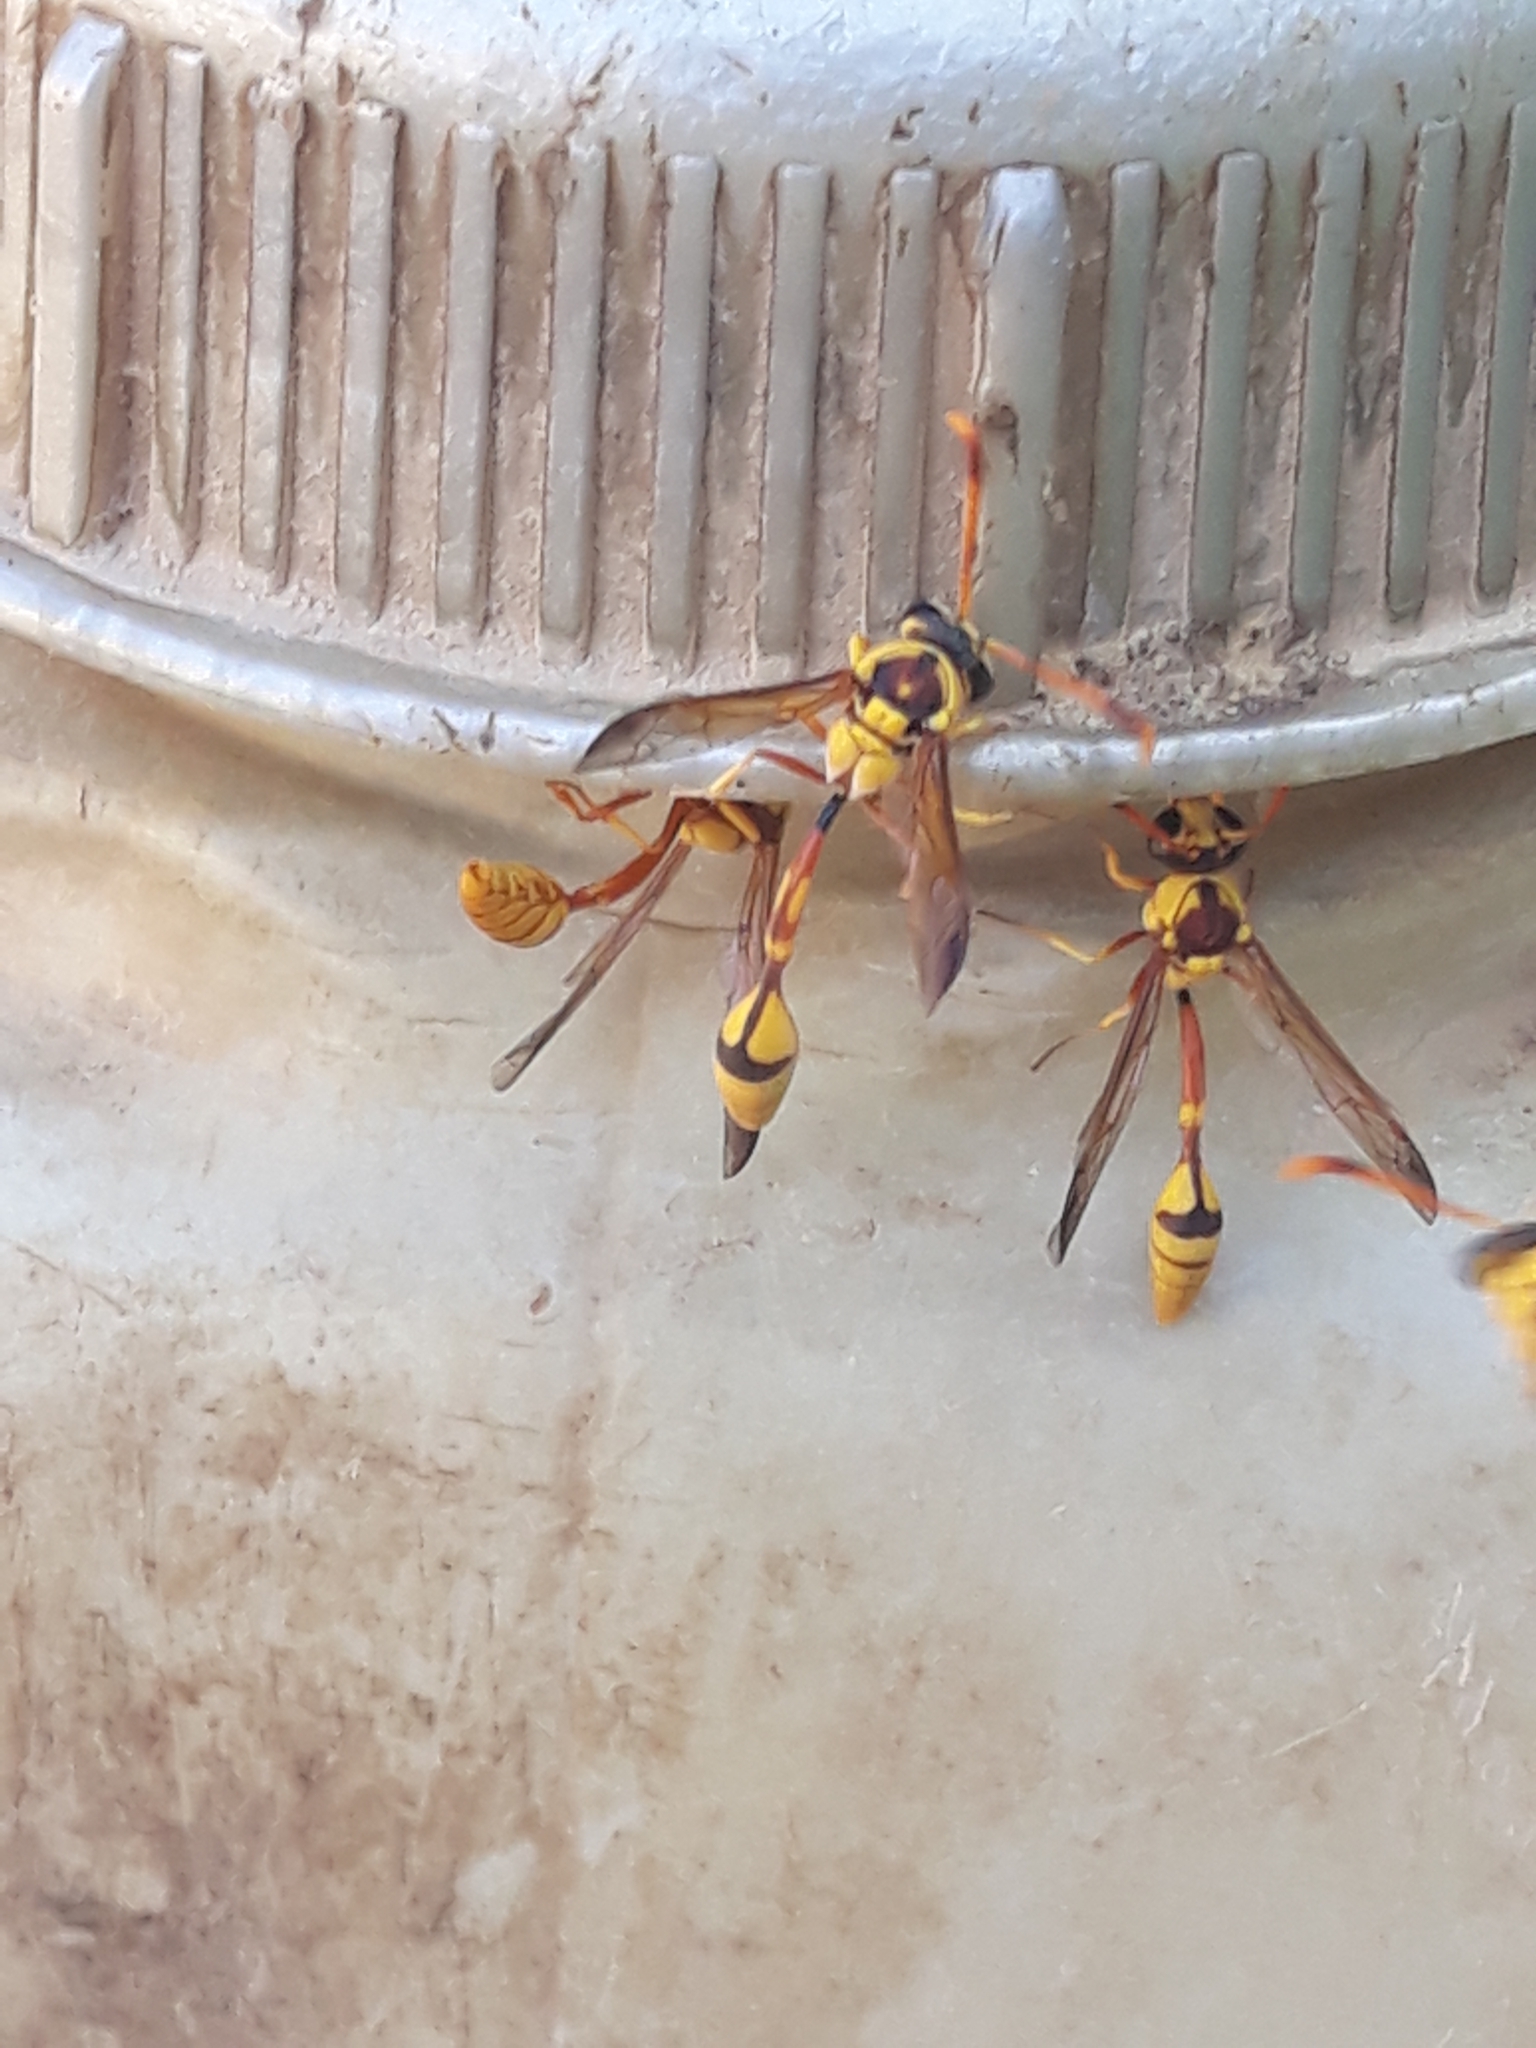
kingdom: Animalia
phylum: Arthropoda
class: Insecta
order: Hymenoptera
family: Eumenidae
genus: Ischnogasteroides
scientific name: Ischnogasteroides flavus
